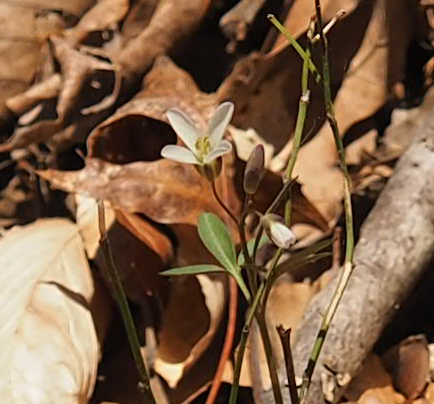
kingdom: Plantae
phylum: Tracheophyta
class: Magnoliopsida
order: Brassicales
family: Brassicaceae
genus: Cardamine
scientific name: Cardamine angustata
